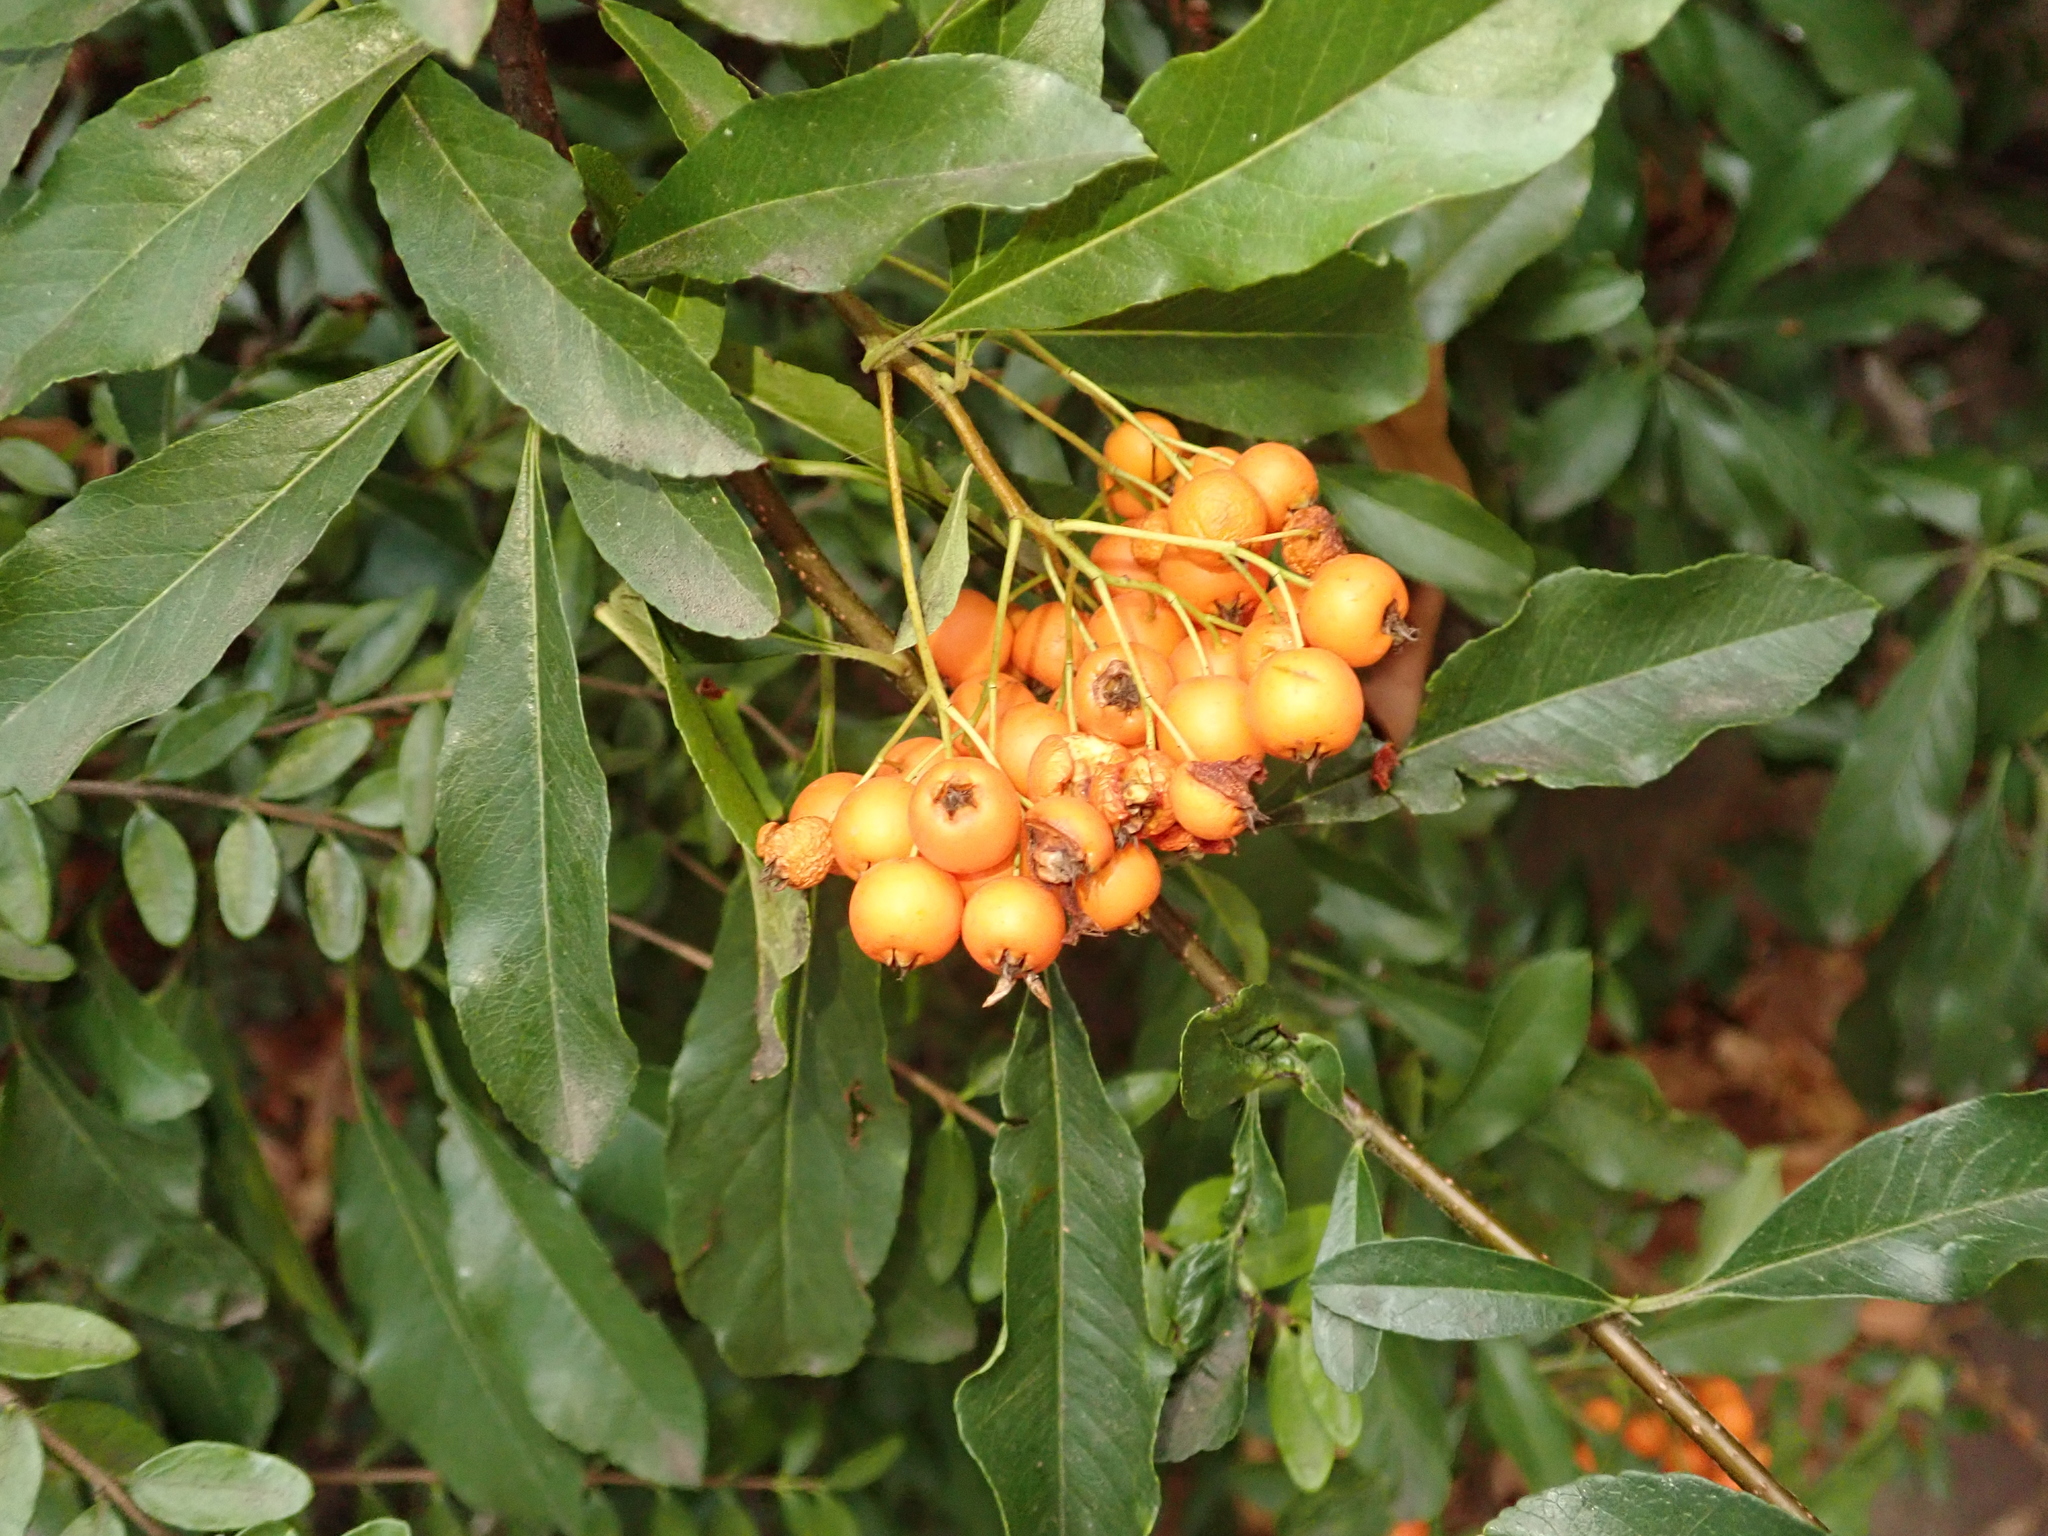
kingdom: Plantae
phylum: Tracheophyta
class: Magnoliopsida
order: Rosales
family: Rosaceae
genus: Pyracantha
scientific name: Pyracantha coccinea
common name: Firethorn
